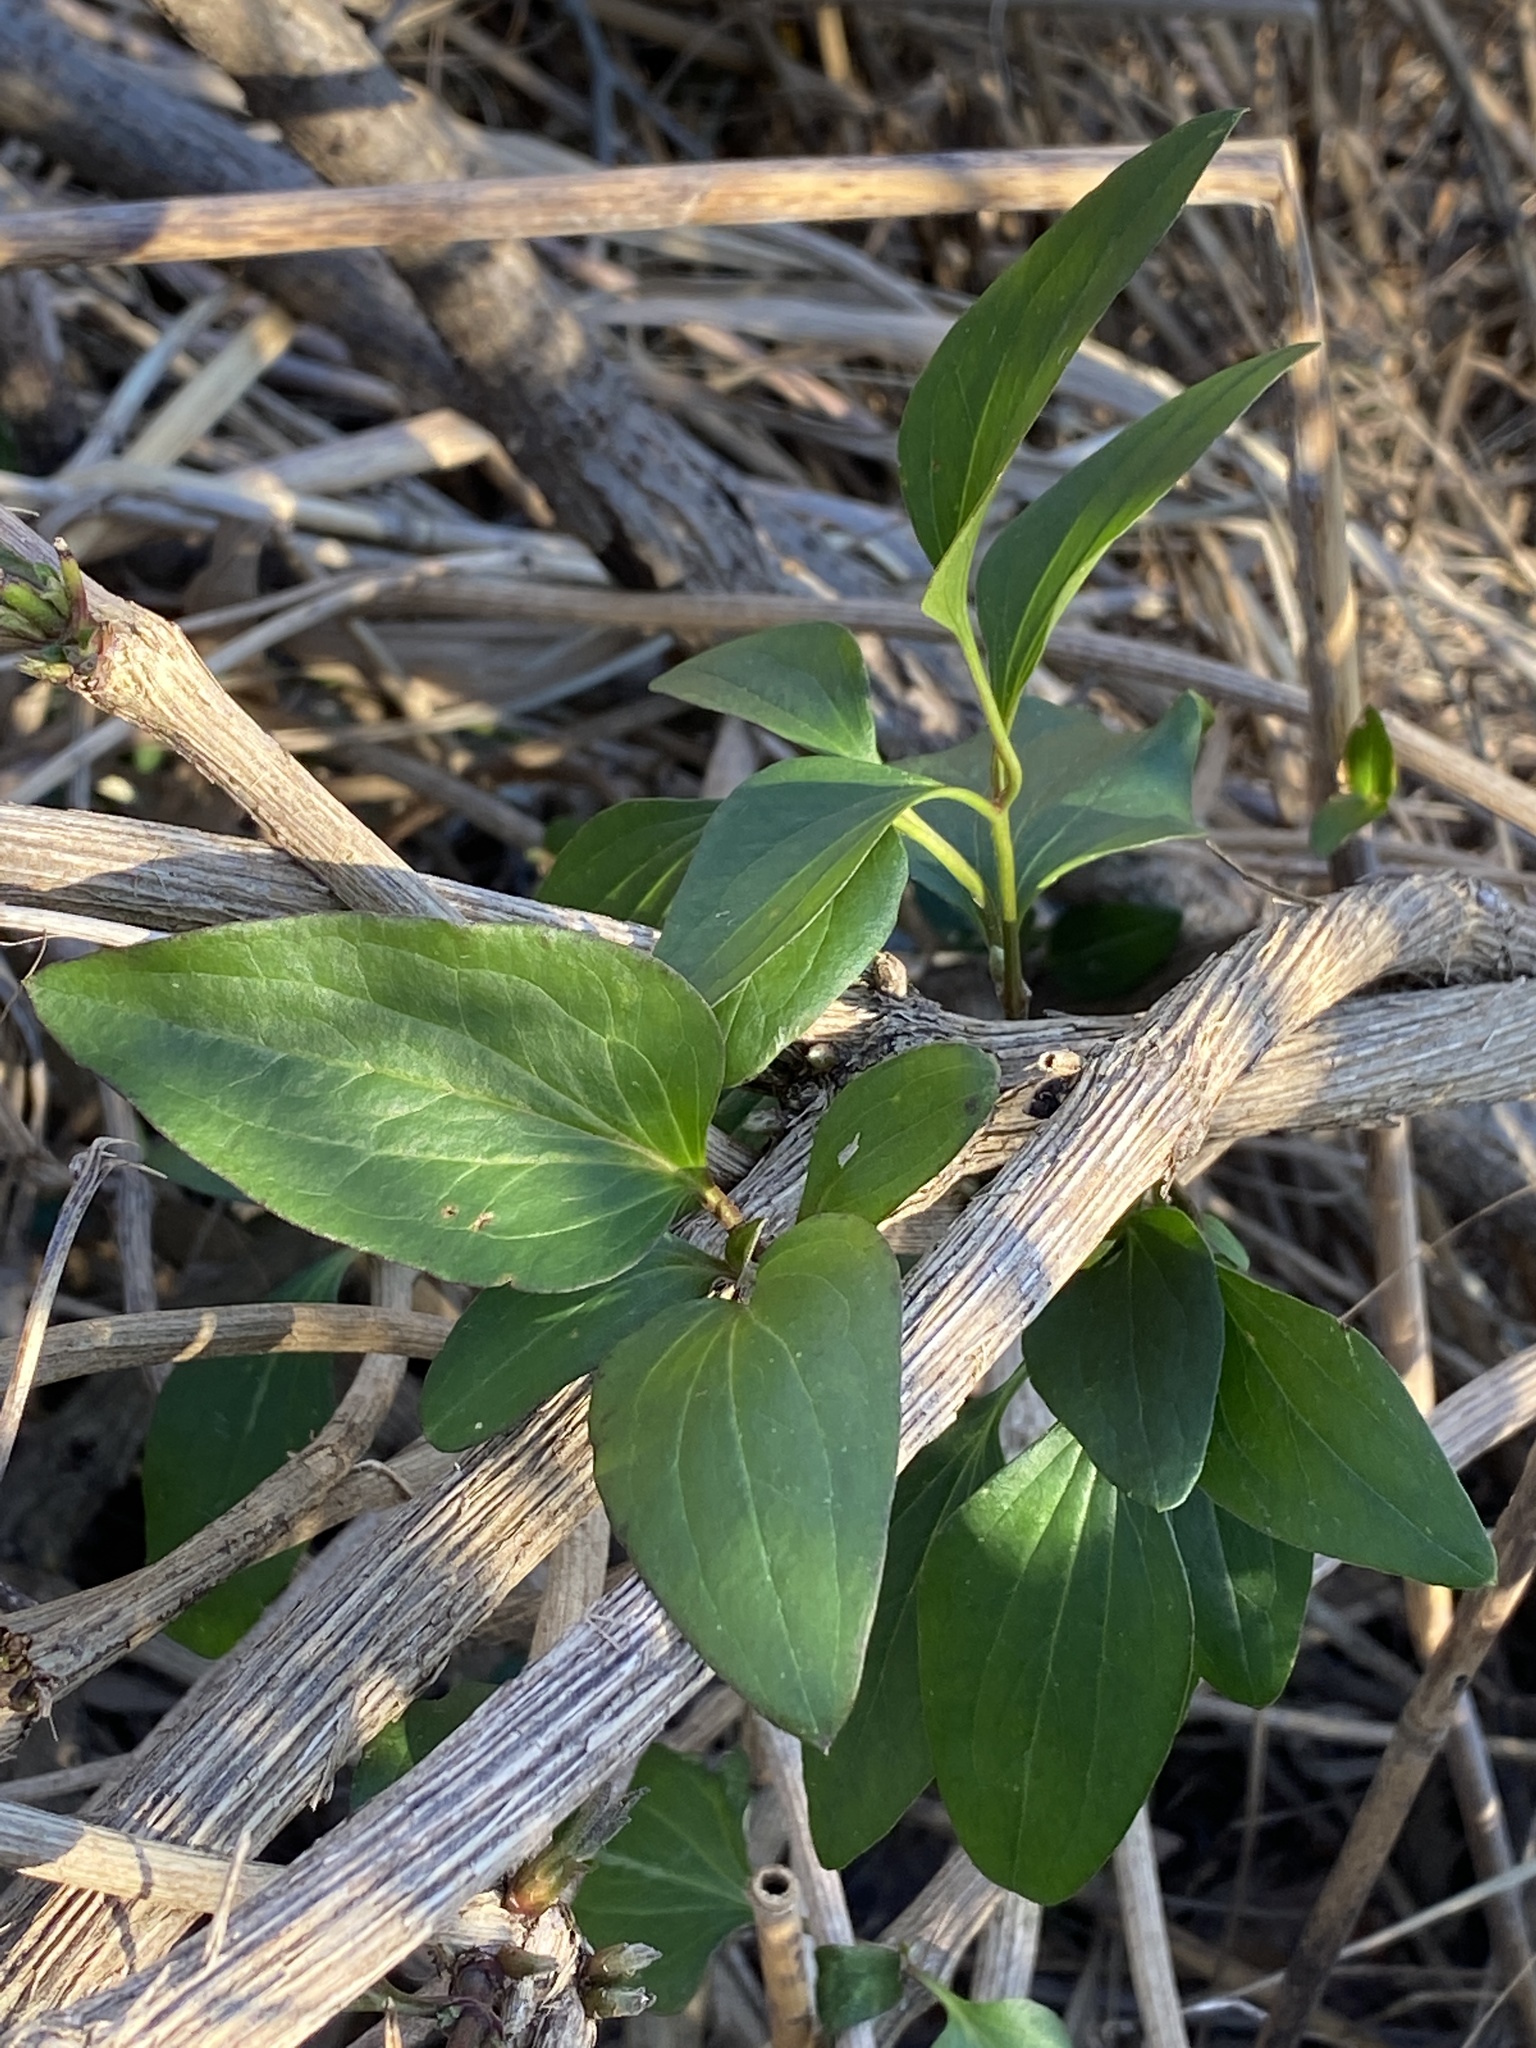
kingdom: Plantae
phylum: Tracheophyta
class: Magnoliopsida
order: Ranunculales
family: Ranunculaceae
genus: Clematis
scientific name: Clematis terniflora
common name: Sweet autumn clematis
